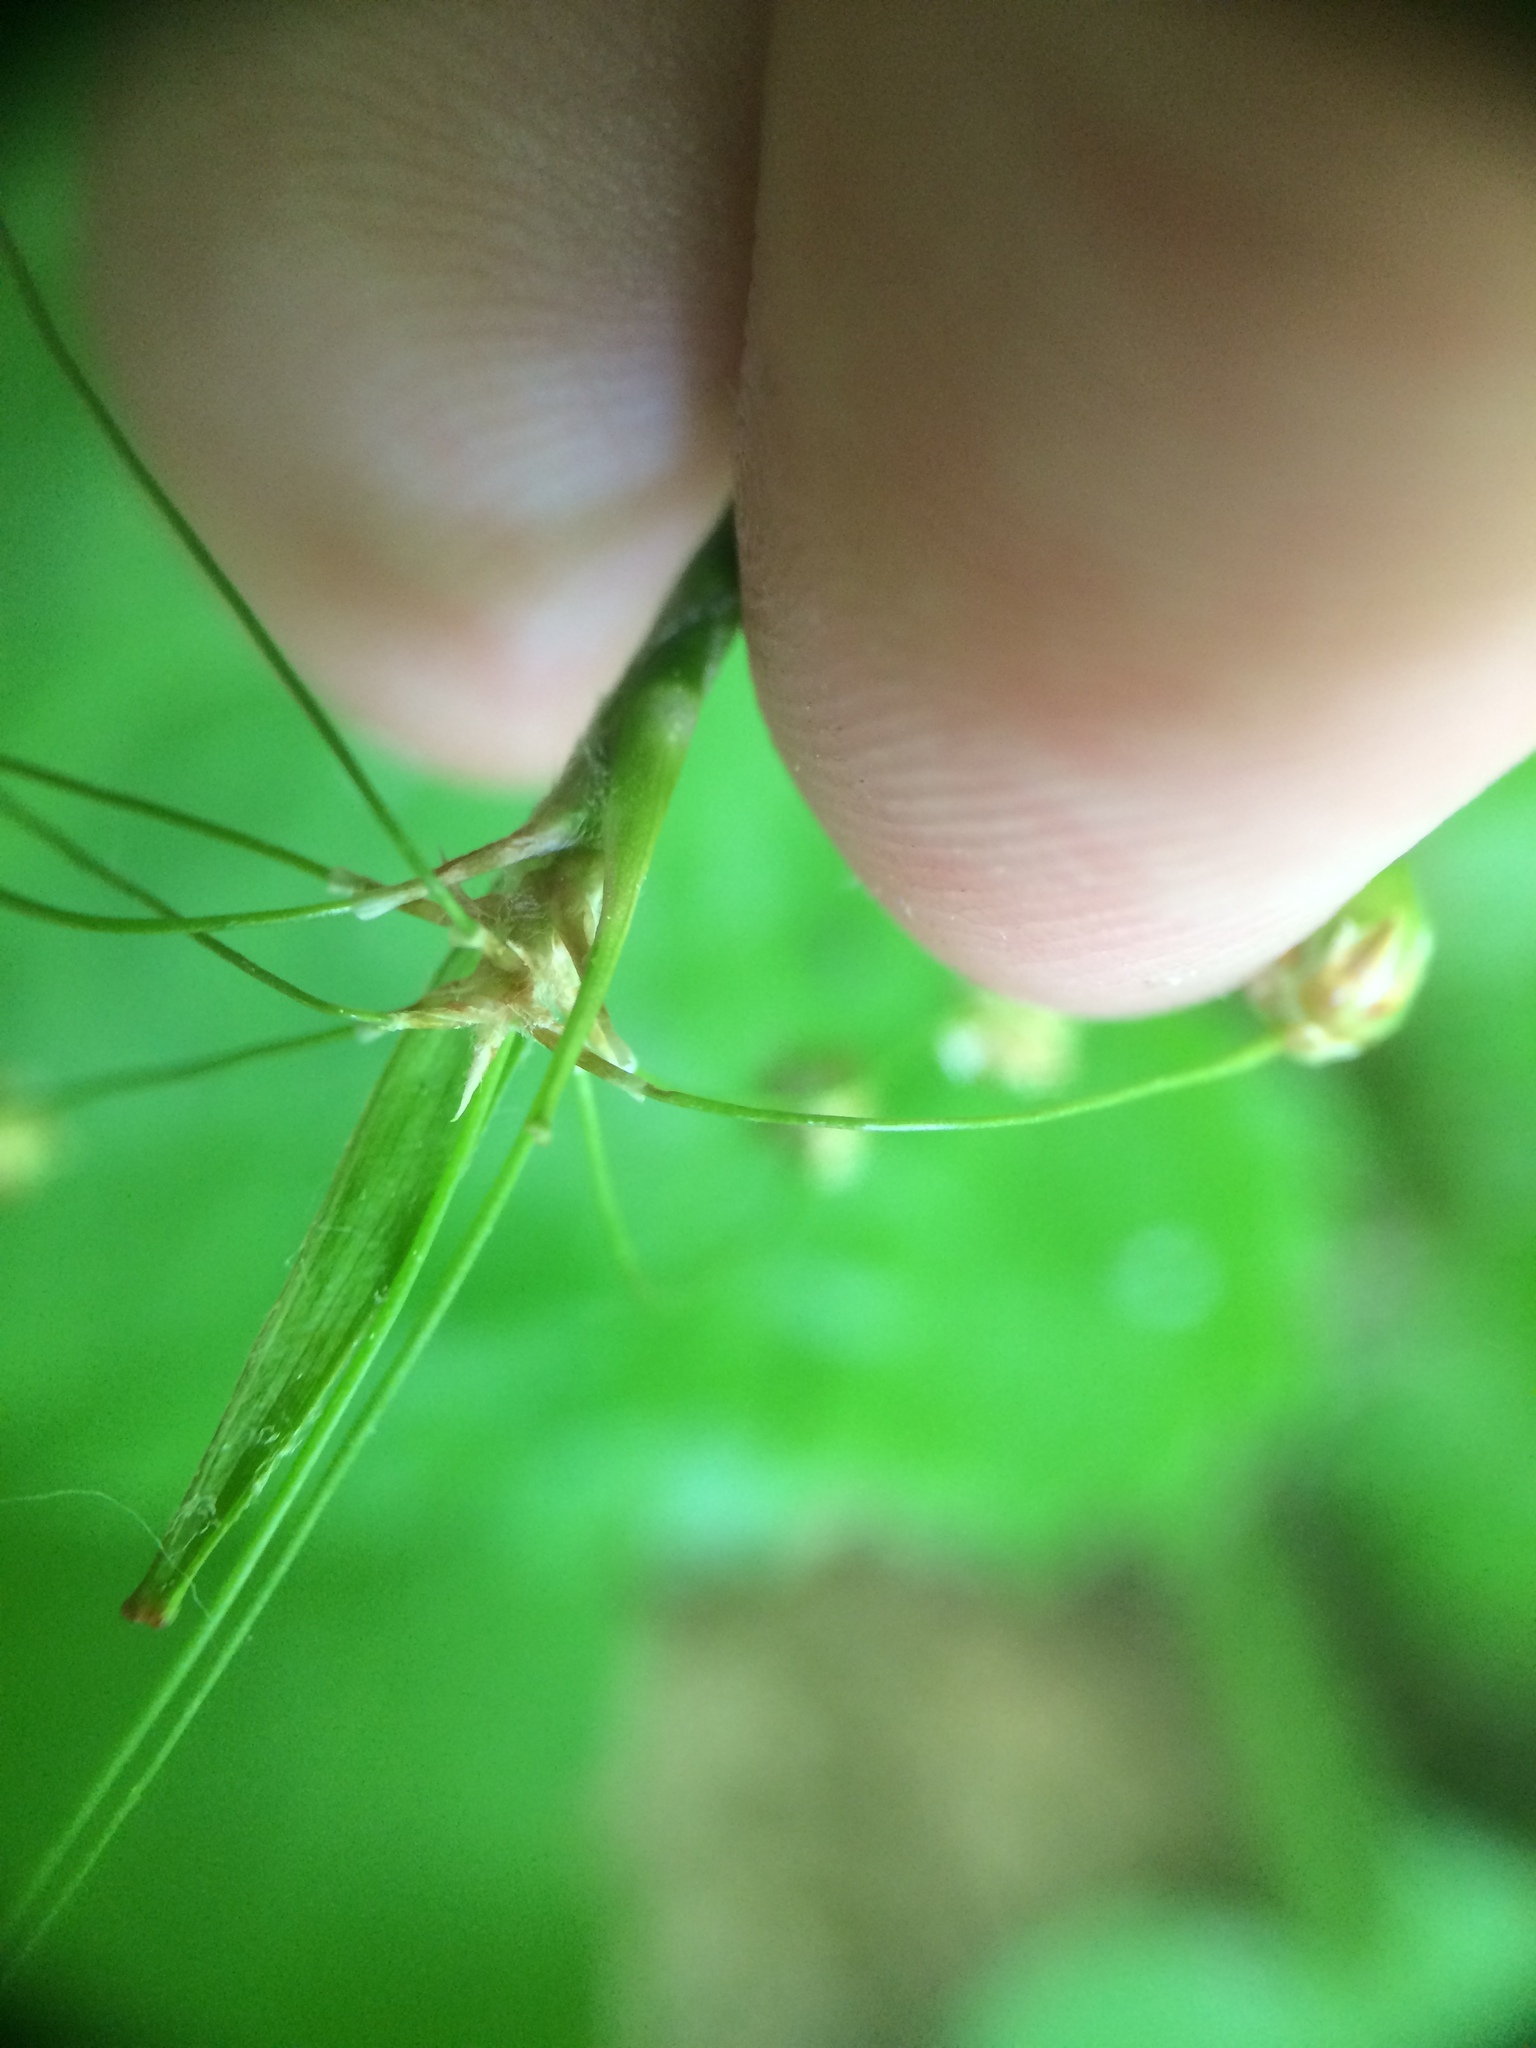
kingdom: Plantae
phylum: Tracheophyta
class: Liliopsida
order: Poales
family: Juncaceae
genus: Luzula
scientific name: Luzula acuminata
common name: Hairy woodrush
